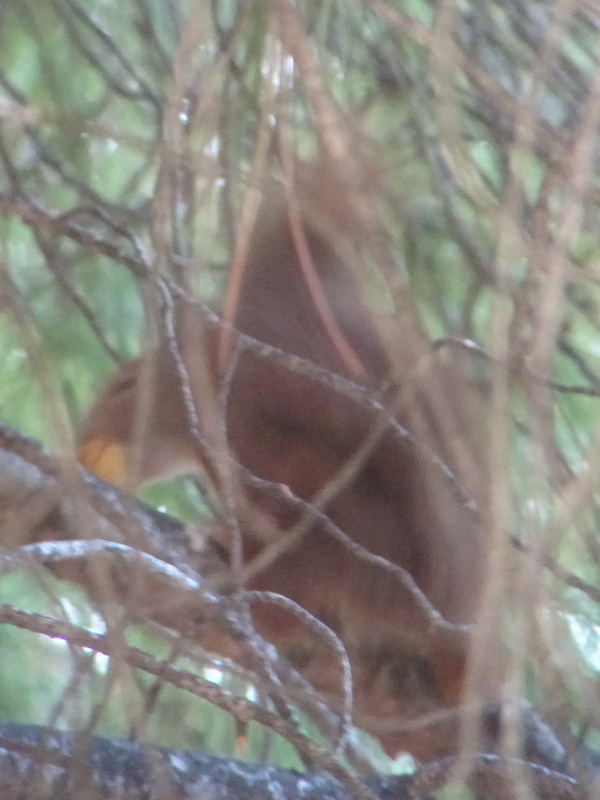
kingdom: Animalia
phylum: Chordata
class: Mammalia
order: Rodentia
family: Sciuridae
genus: Sciurus
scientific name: Sciurus vulgaris
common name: Eurasian red squirrel
